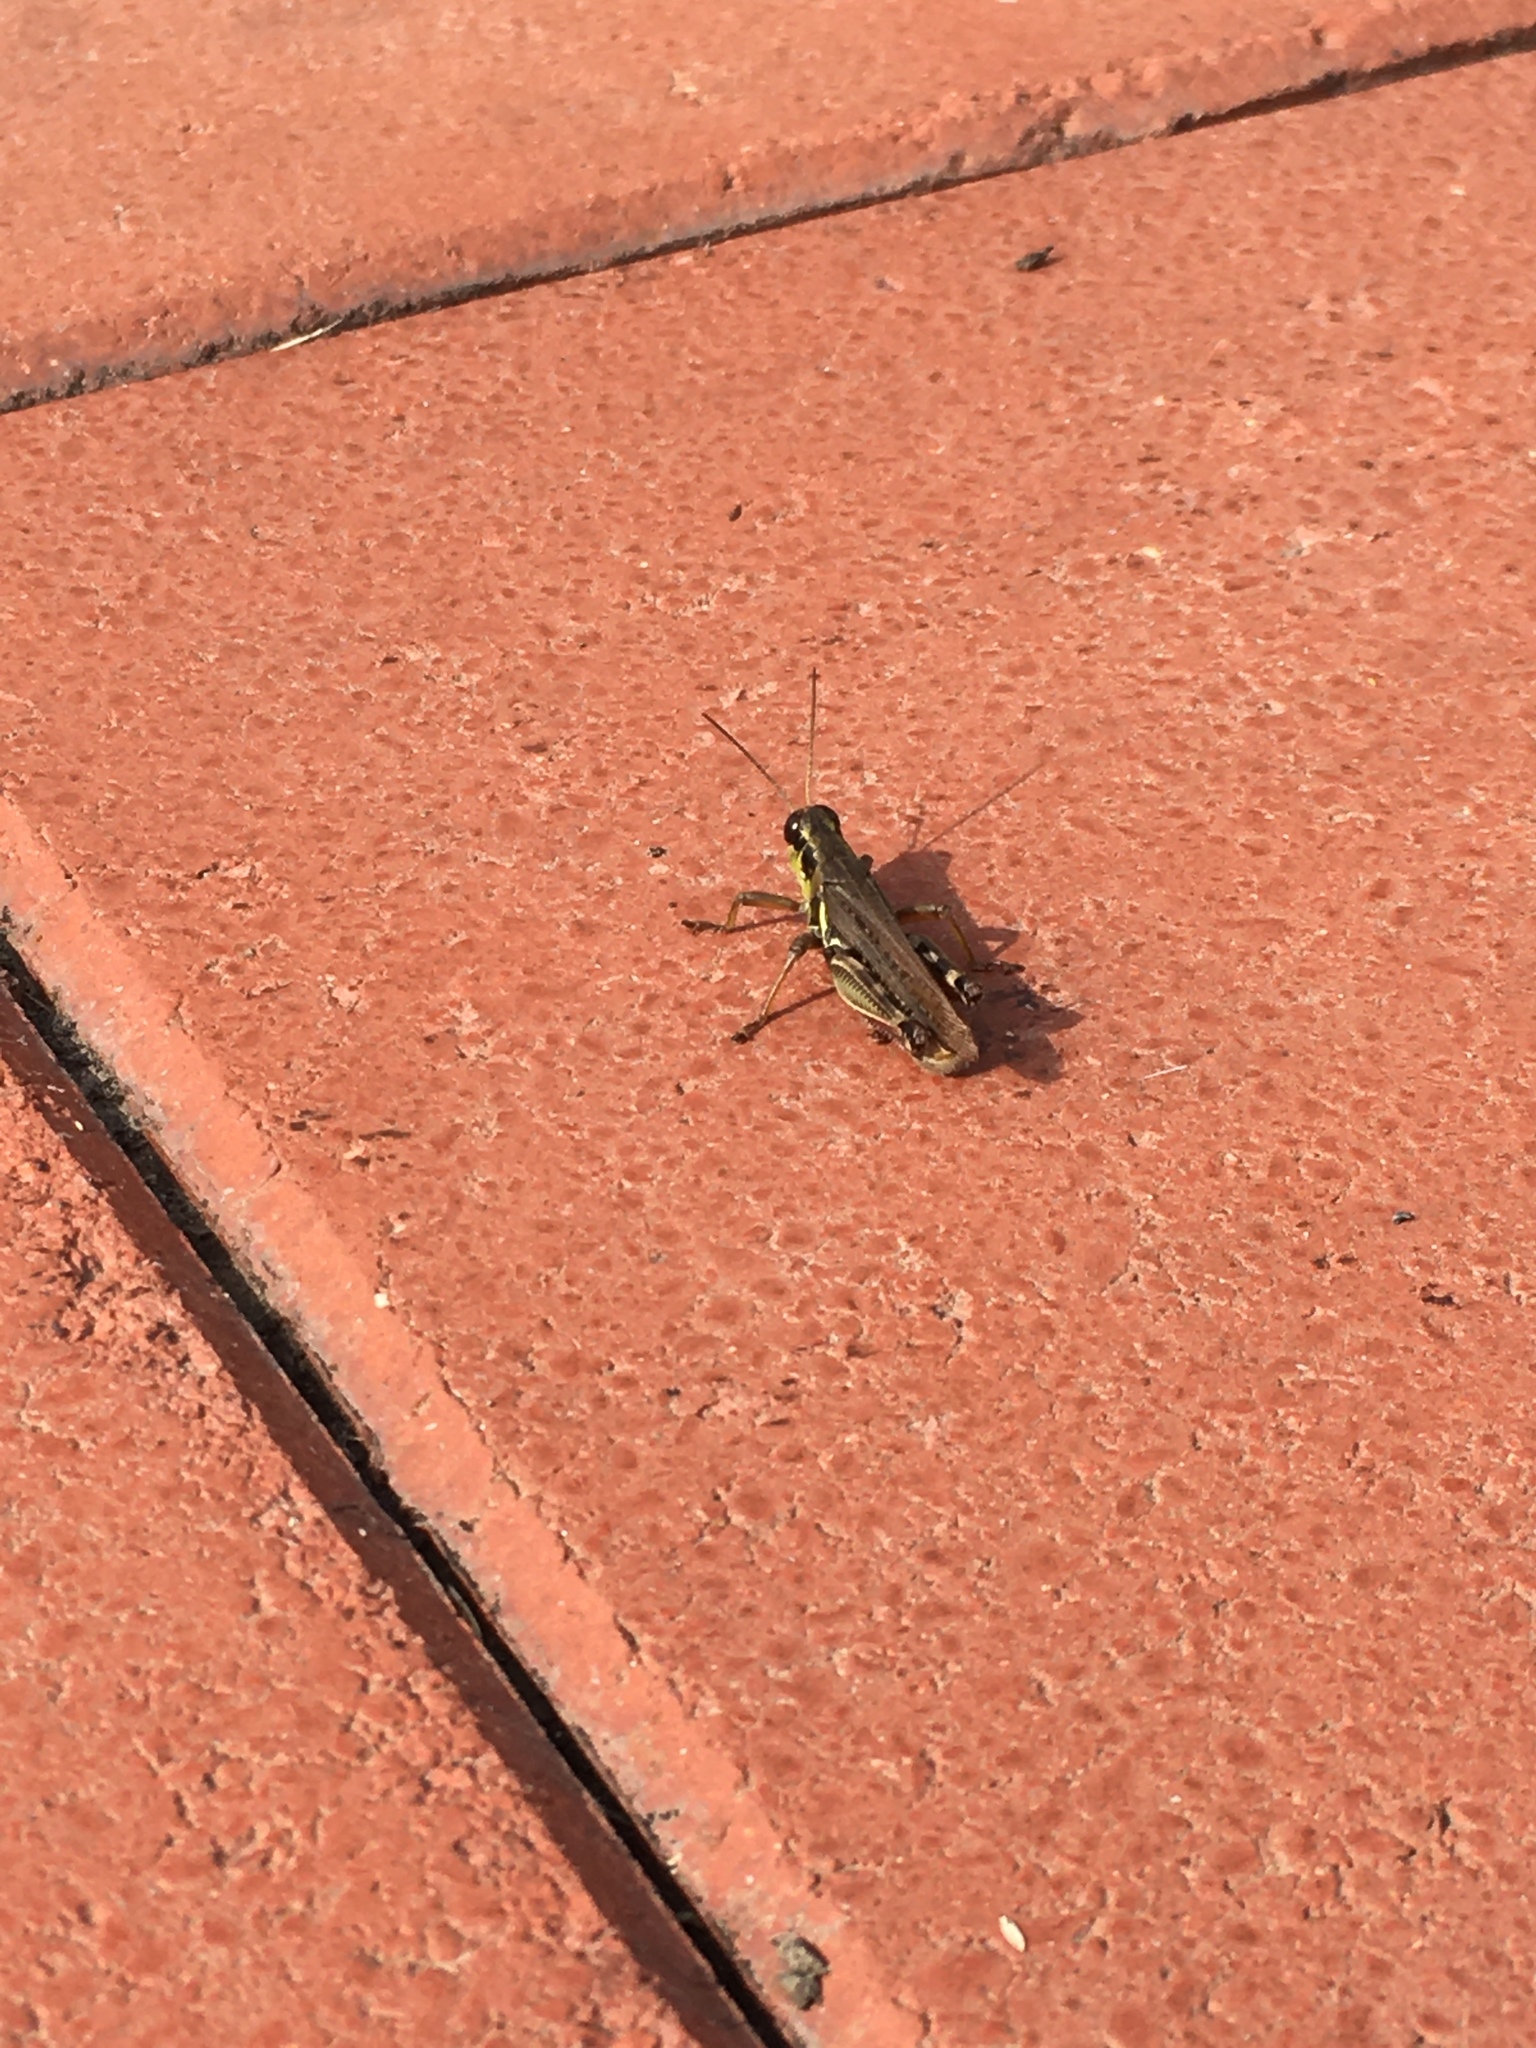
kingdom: Animalia
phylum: Arthropoda
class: Insecta
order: Orthoptera
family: Acrididae
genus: Melanoplus
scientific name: Melanoplus femurrubrum
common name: Red-legged grasshopper
